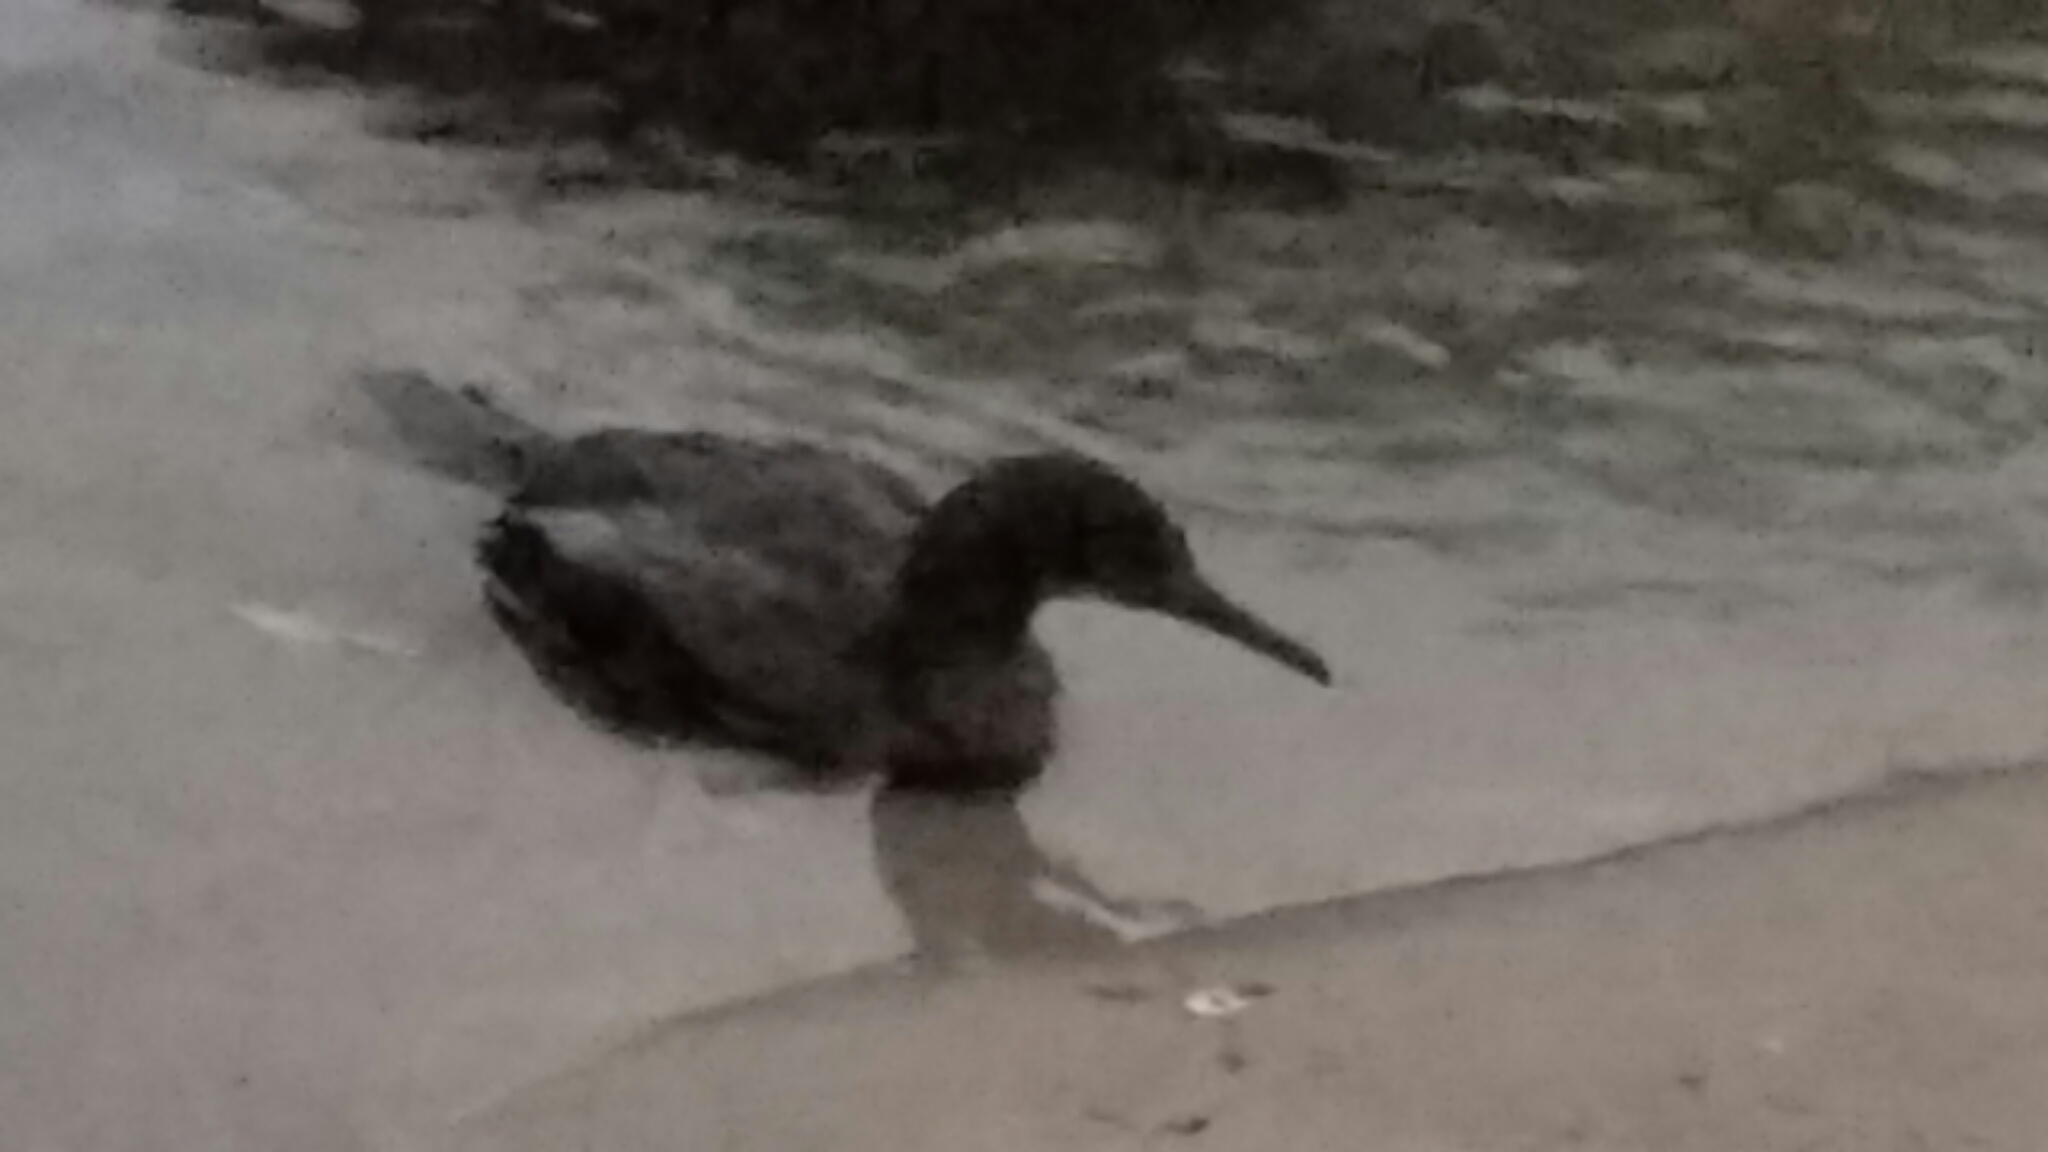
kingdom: Animalia
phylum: Chordata
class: Aves
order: Suliformes
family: Phalacrocoracidae
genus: Phalacrocorax
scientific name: Phalacrocorax auritus
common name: Double-crested cormorant
